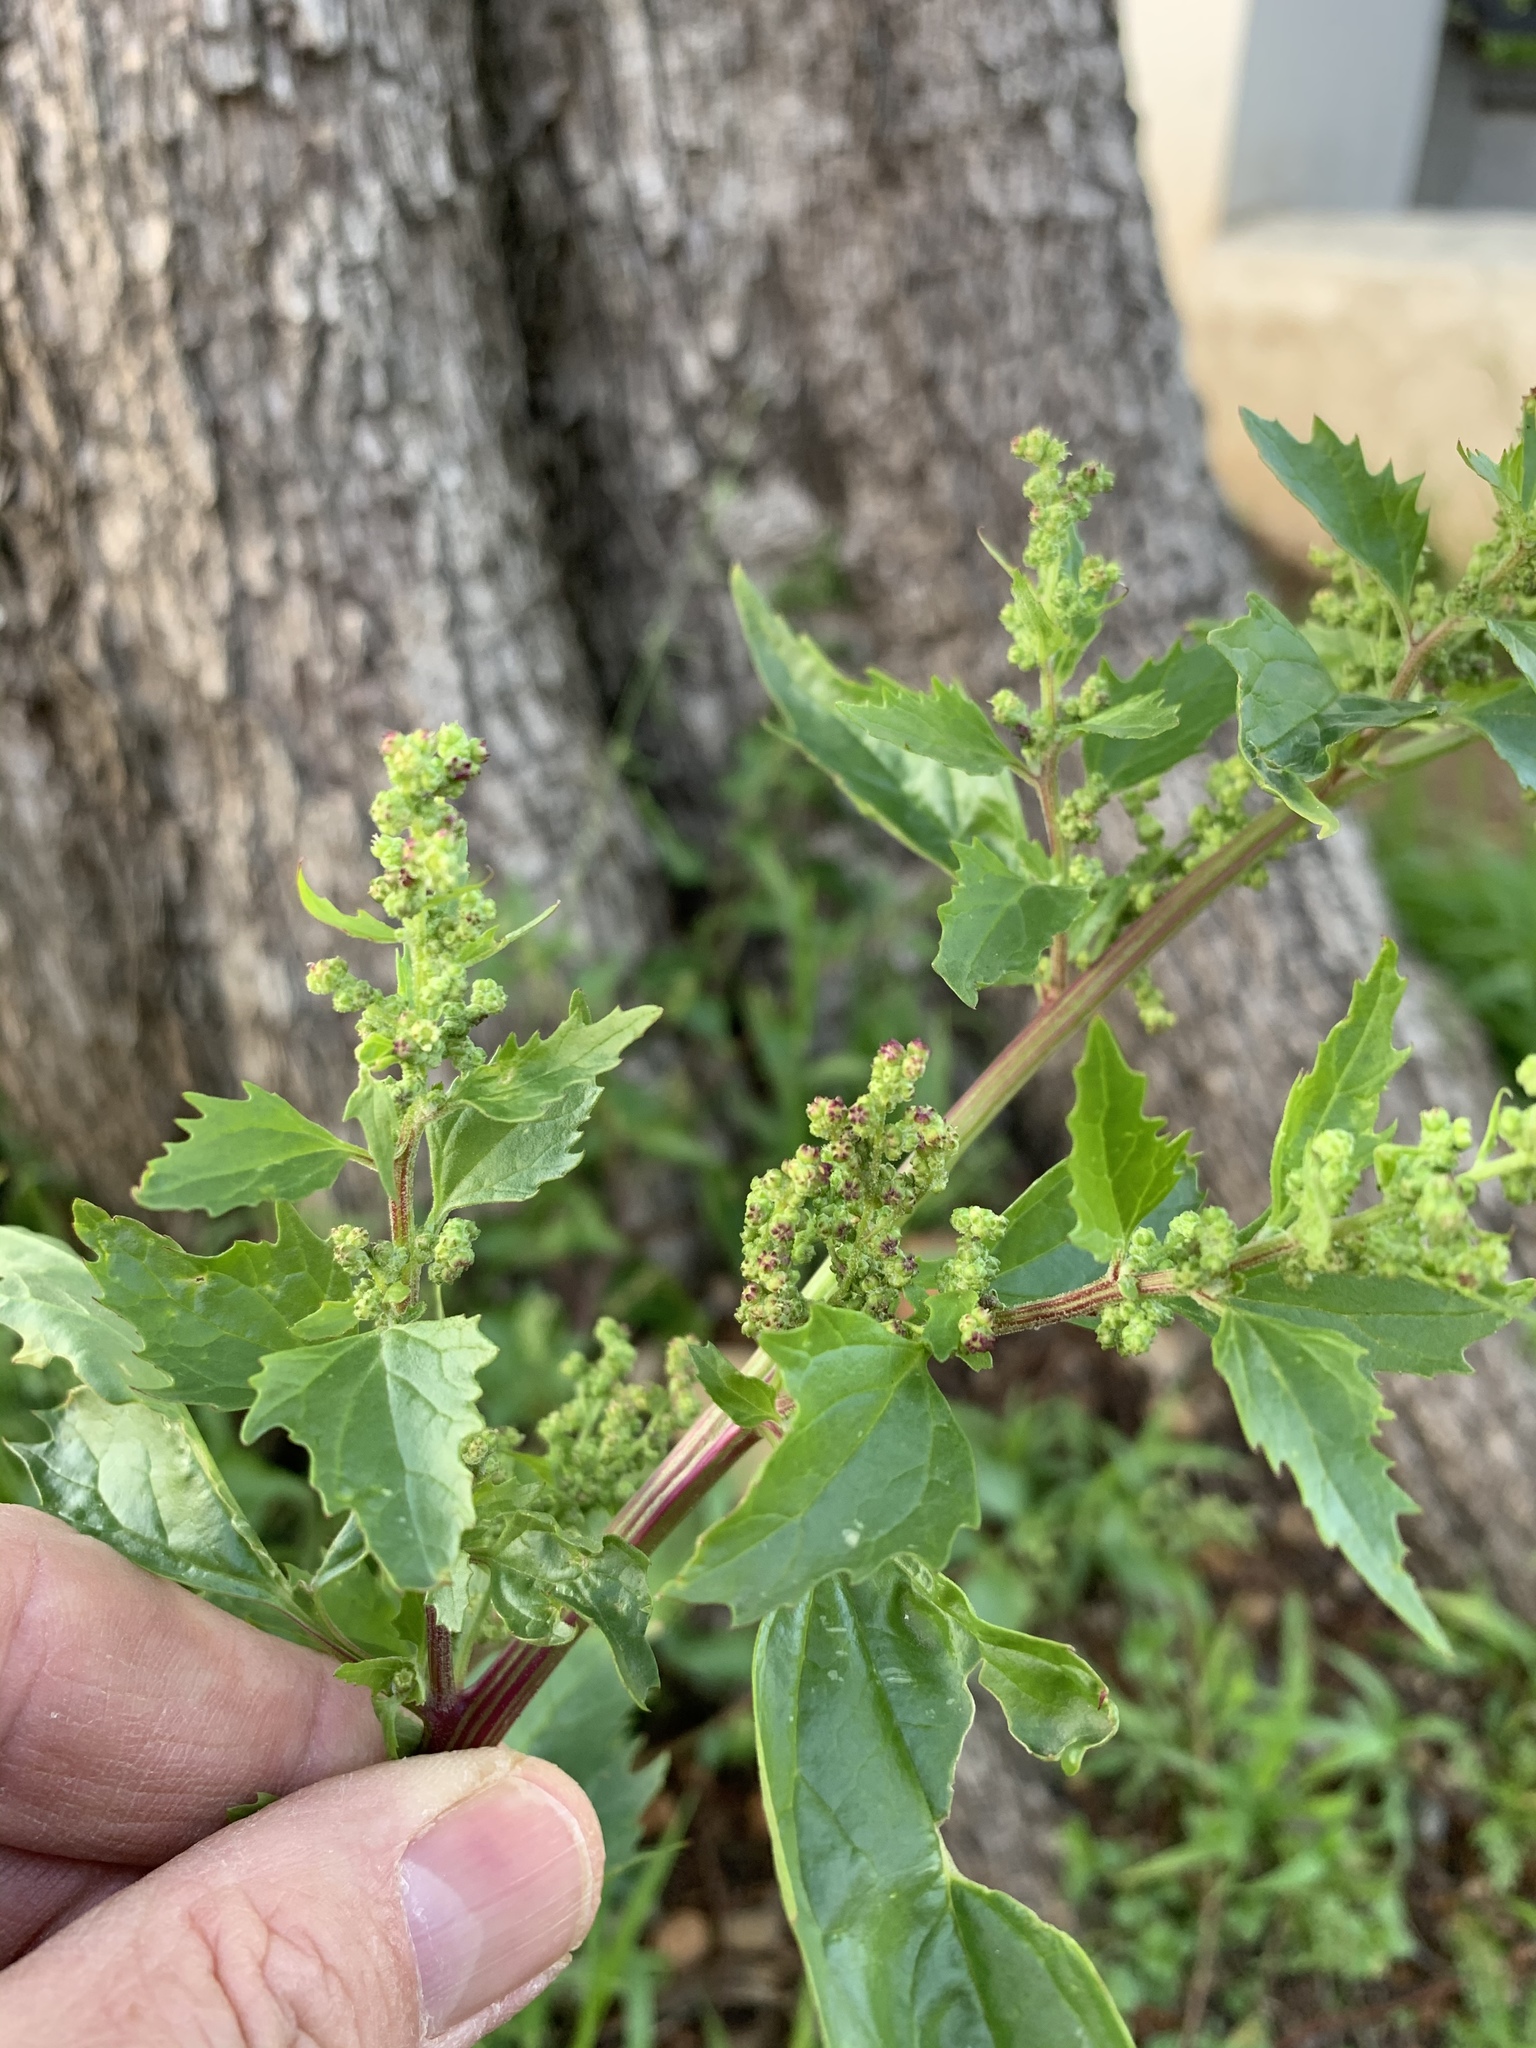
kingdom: Plantae
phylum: Tracheophyta
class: Magnoliopsida
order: Caryophyllales
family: Amaranthaceae
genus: Chenopodiastrum
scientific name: Chenopodiastrum murale
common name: Sowbane
